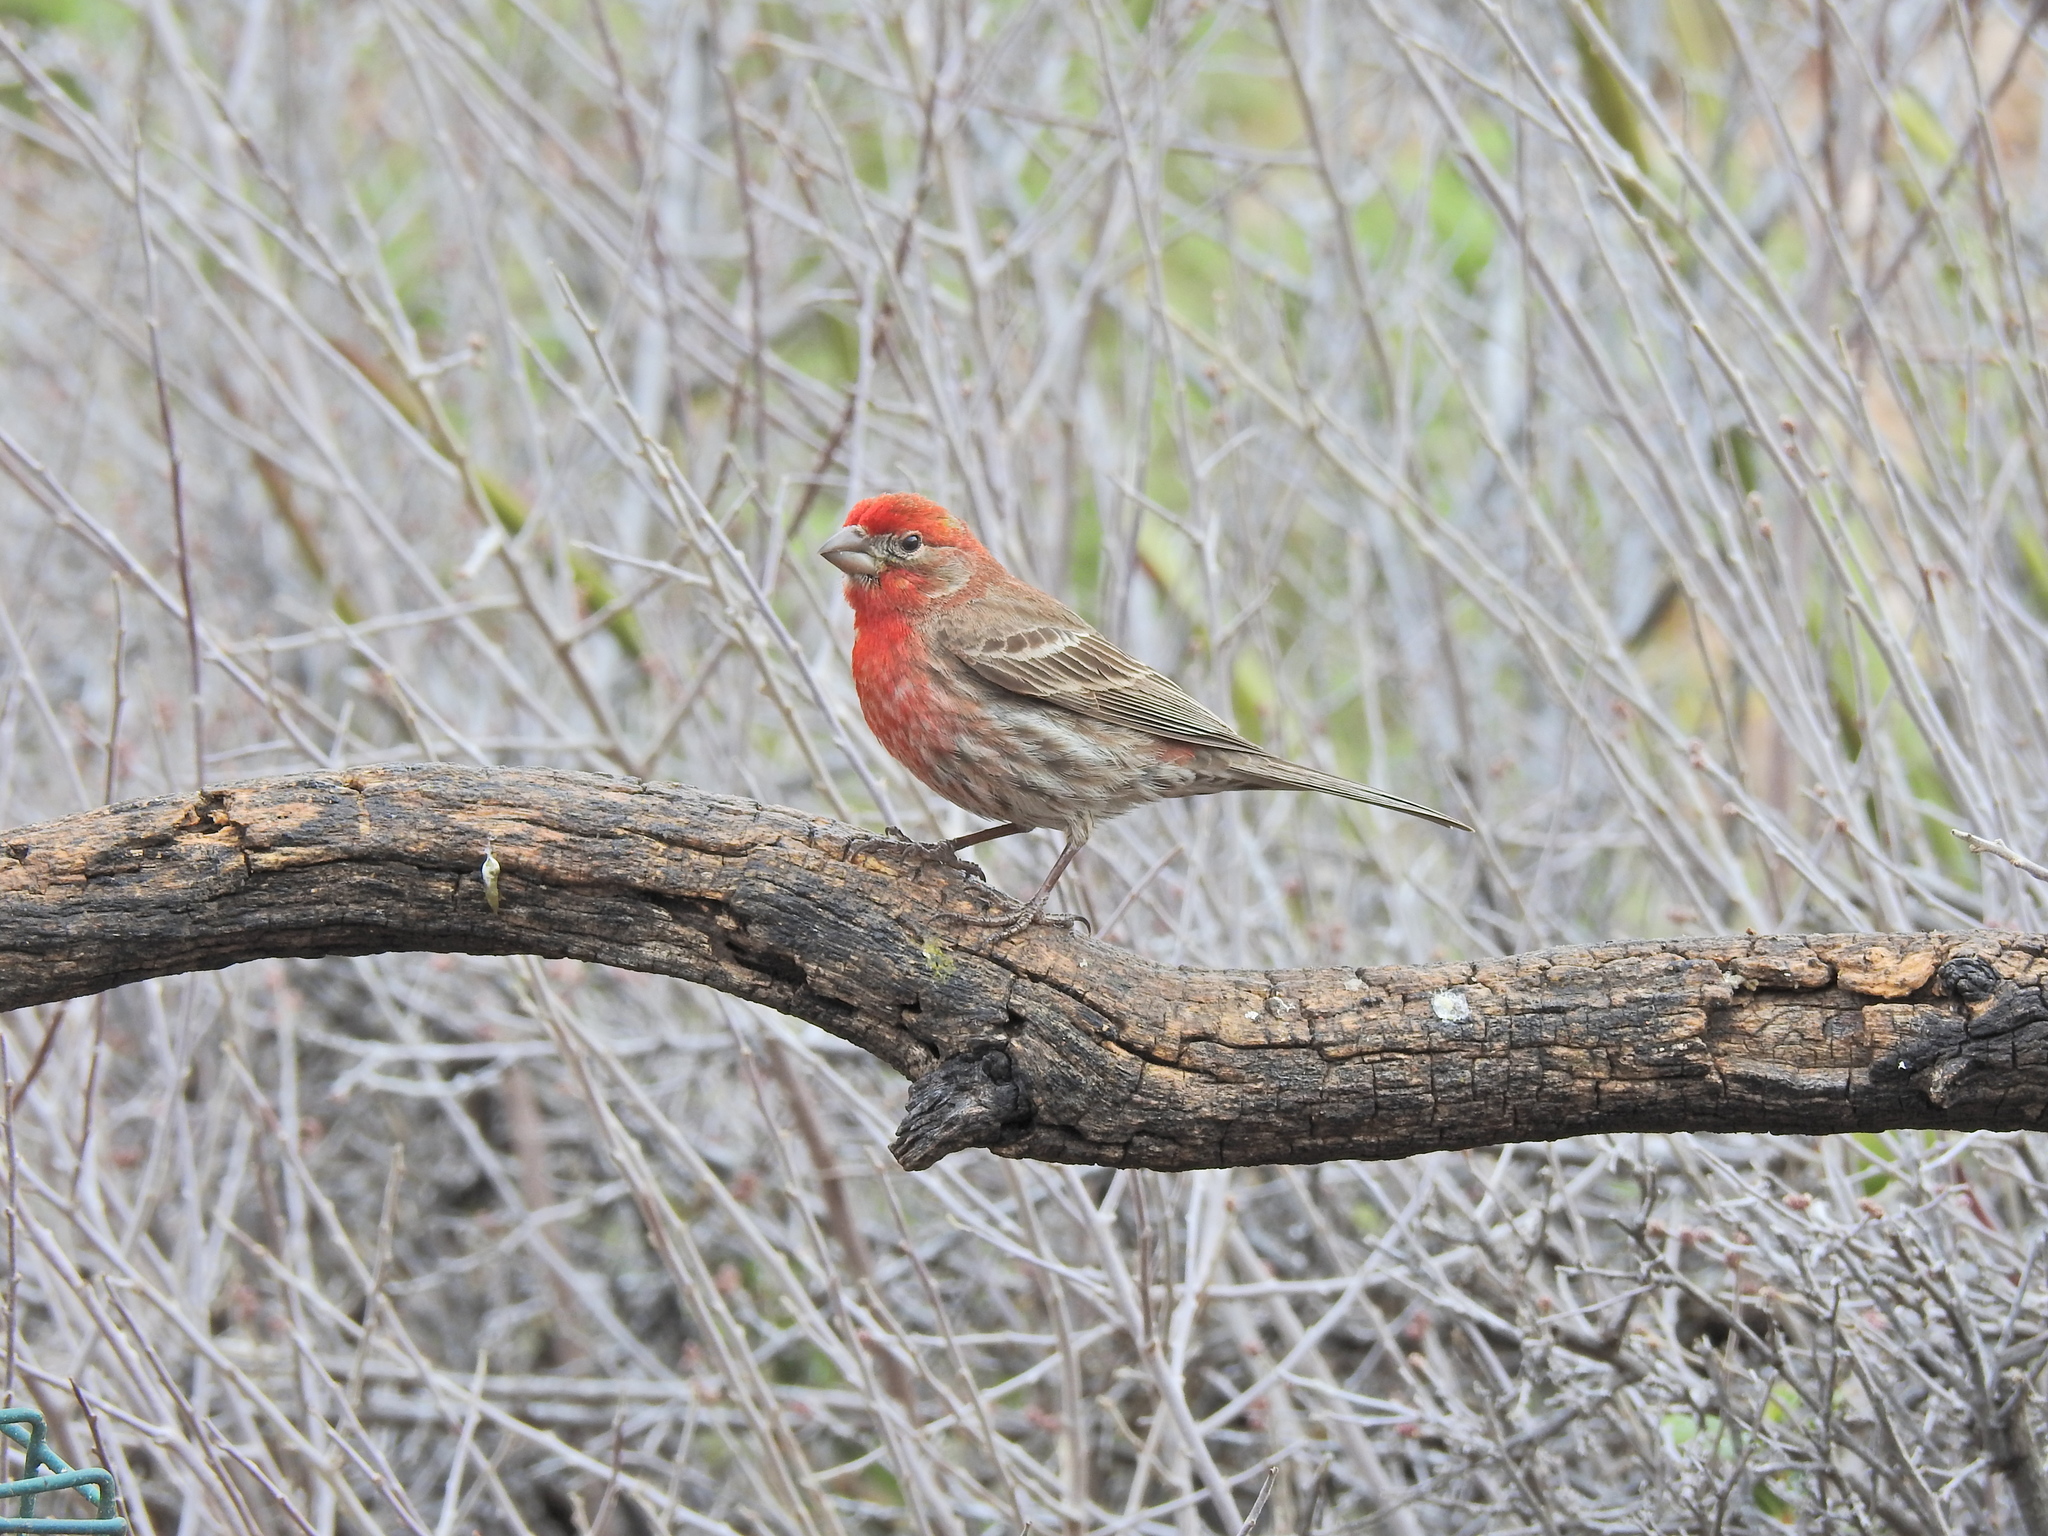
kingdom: Animalia
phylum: Chordata
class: Aves
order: Passeriformes
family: Fringillidae
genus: Haemorhous
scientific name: Haemorhous mexicanus
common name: House finch
